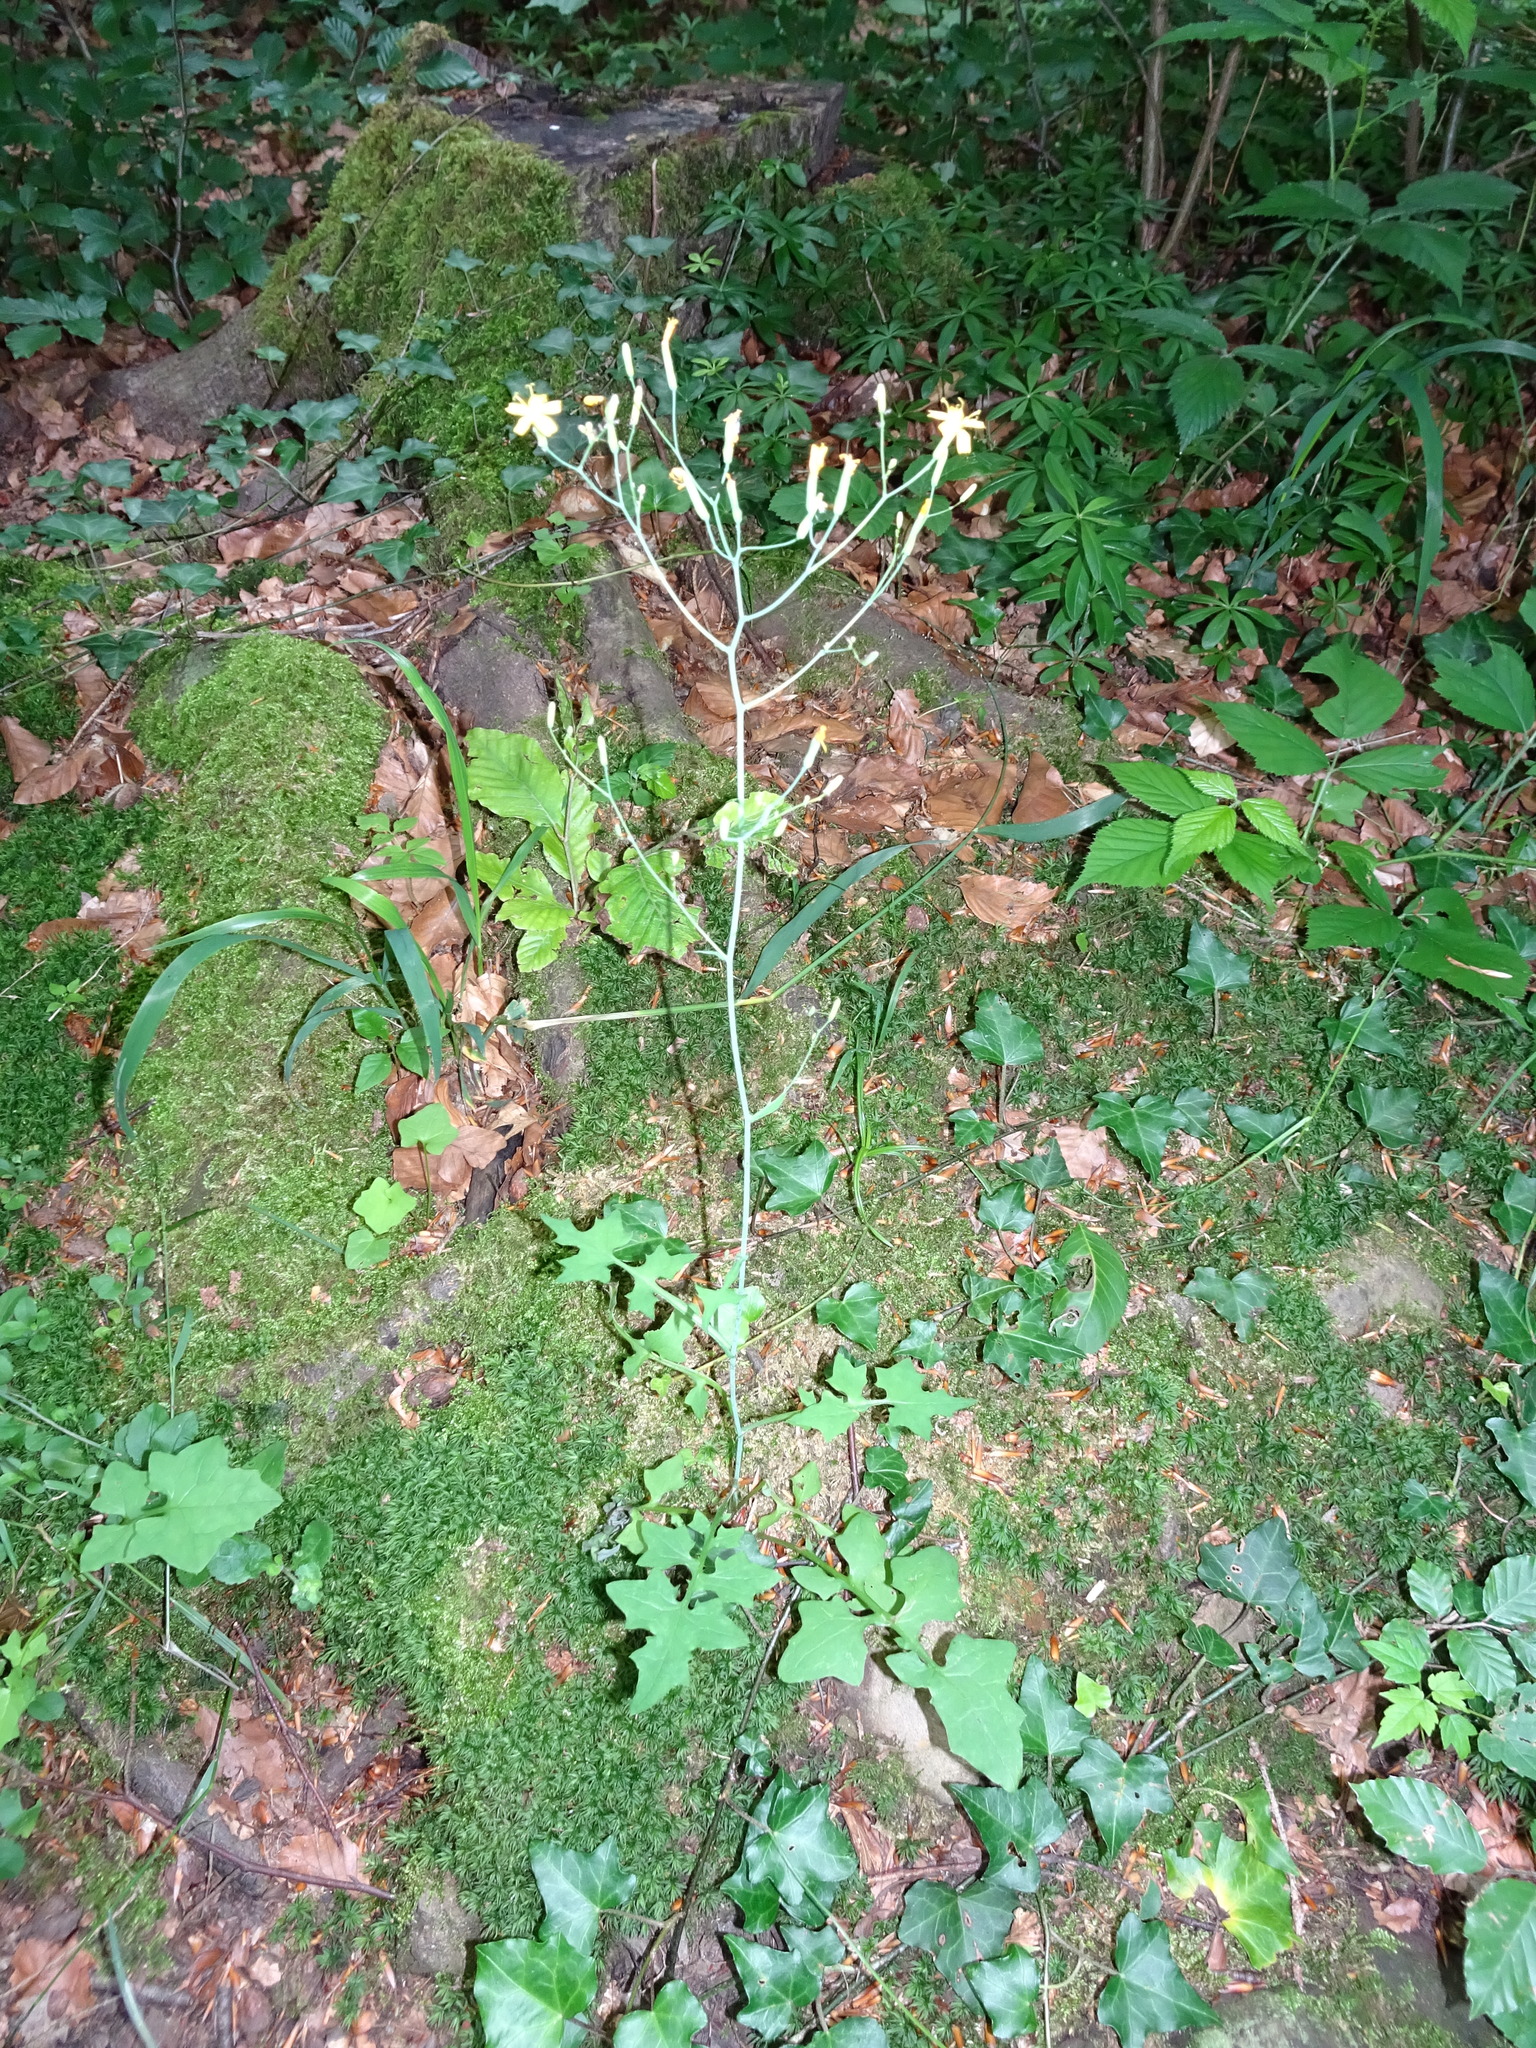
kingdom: Plantae
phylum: Tracheophyta
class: Magnoliopsida
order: Asterales
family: Asteraceae
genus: Mycelis
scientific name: Mycelis muralis
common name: Wall lettuce
